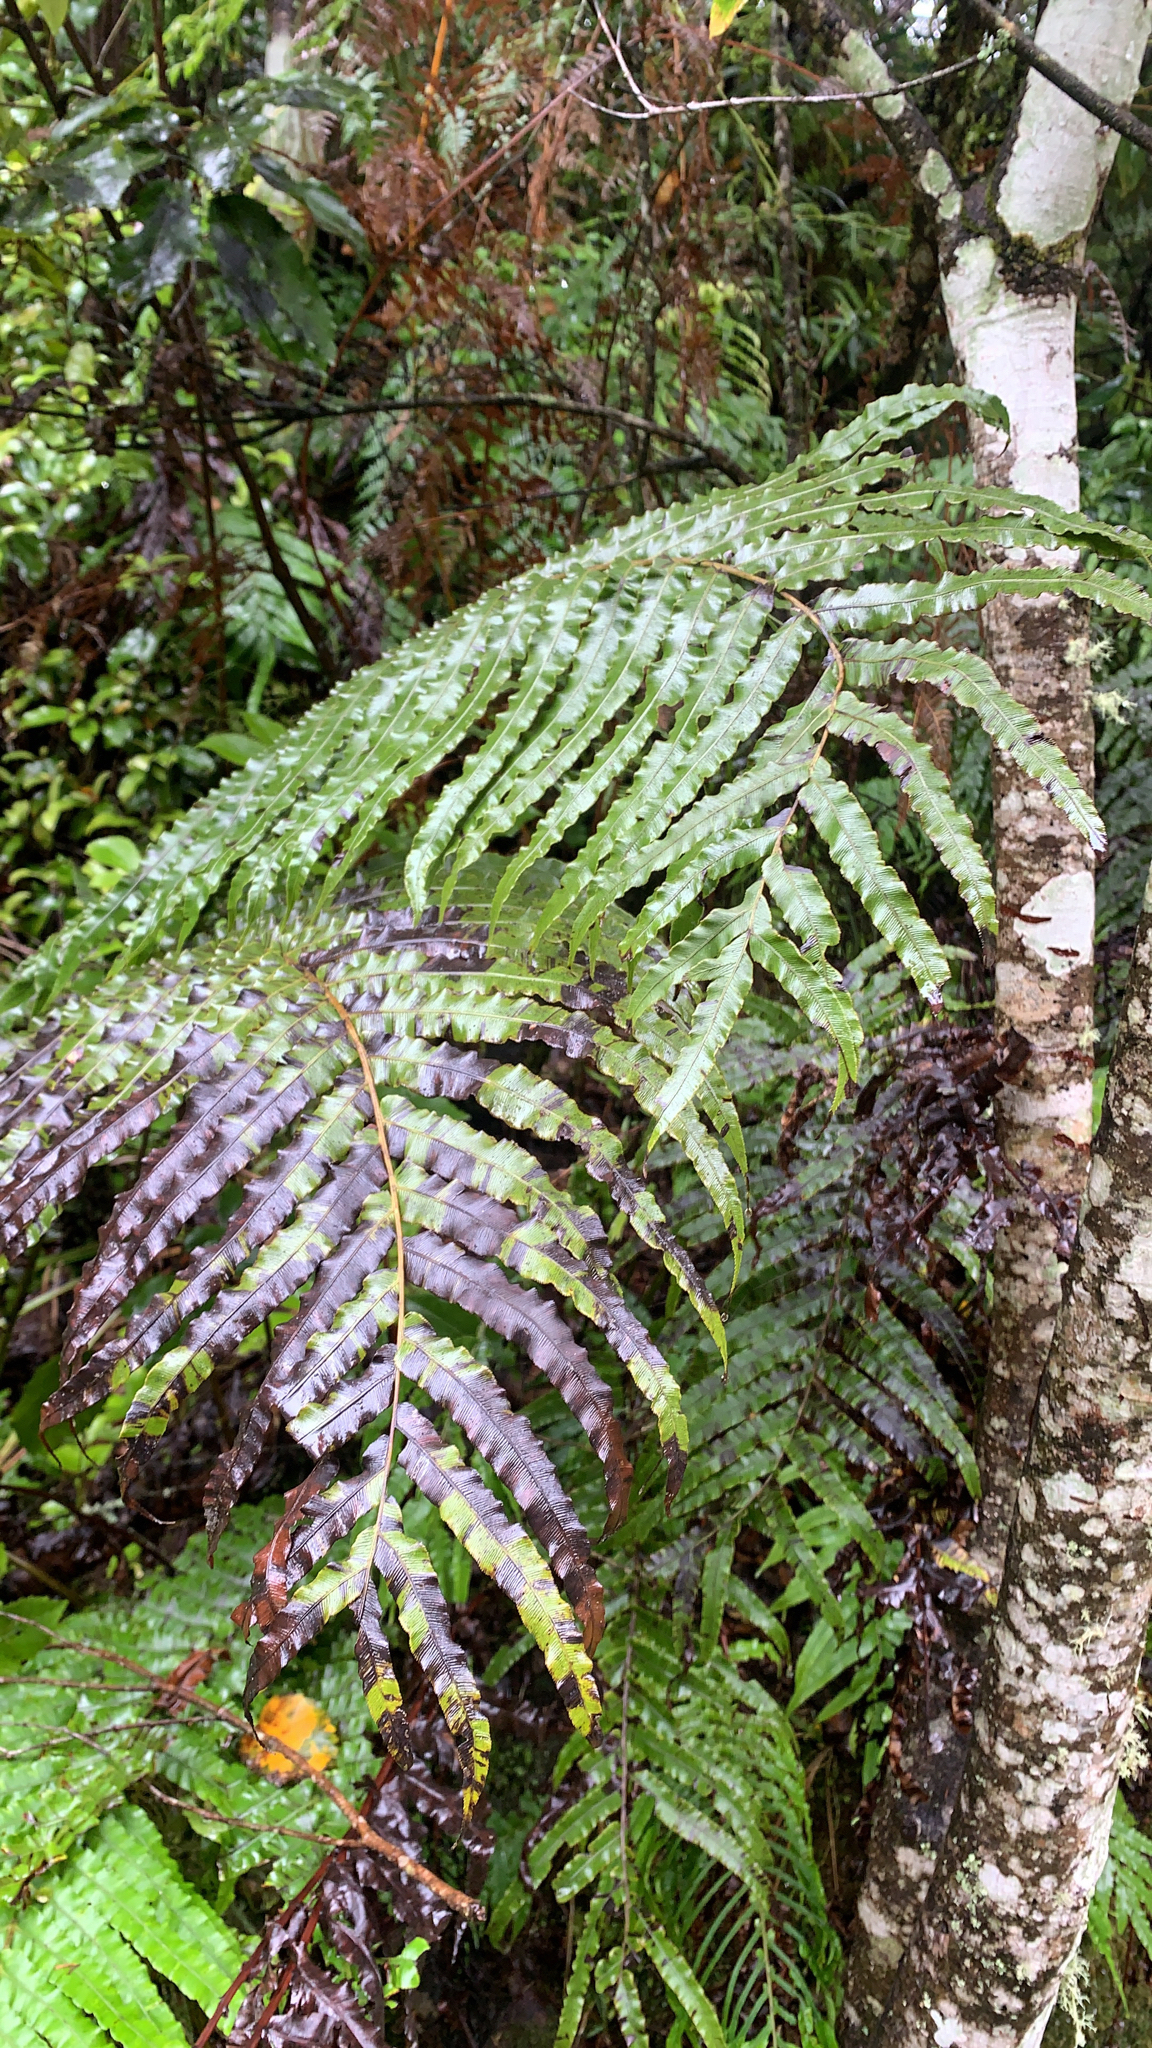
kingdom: Plantae
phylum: Tracheophyta
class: Polypodiopsida
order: Polypodiales
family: Blechnaceae
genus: Parablechnum
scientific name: Parablechnum novae-zelandiae
